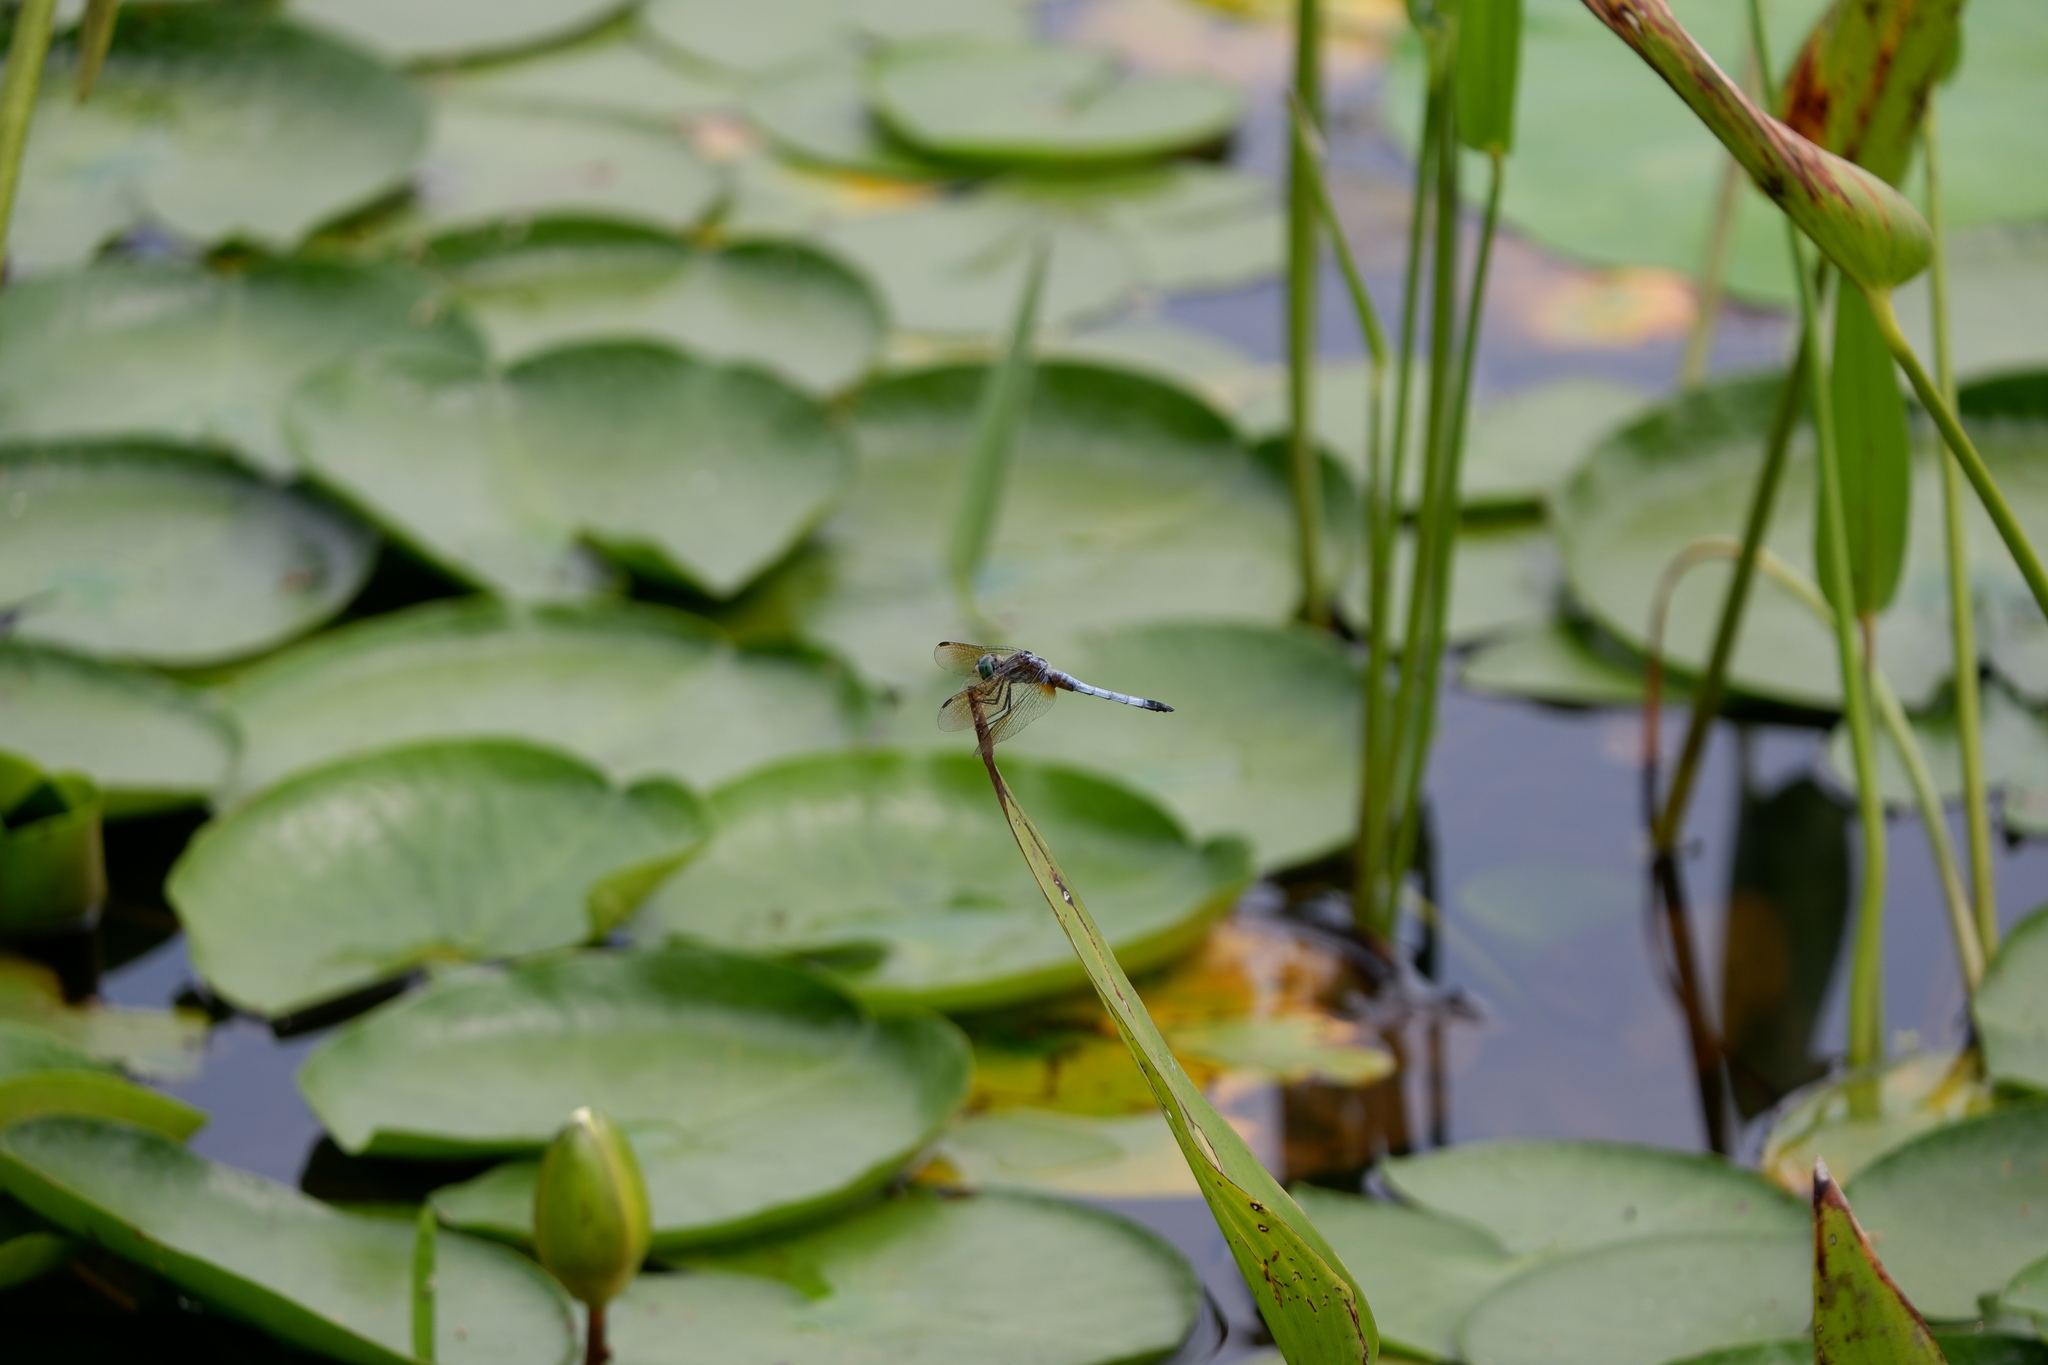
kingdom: Animalia
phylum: Arthropoda
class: Insecta
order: Odonata
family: Libellulidae
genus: Pachydiplax
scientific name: Pachydiplax longipennis
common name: Blue dasher
